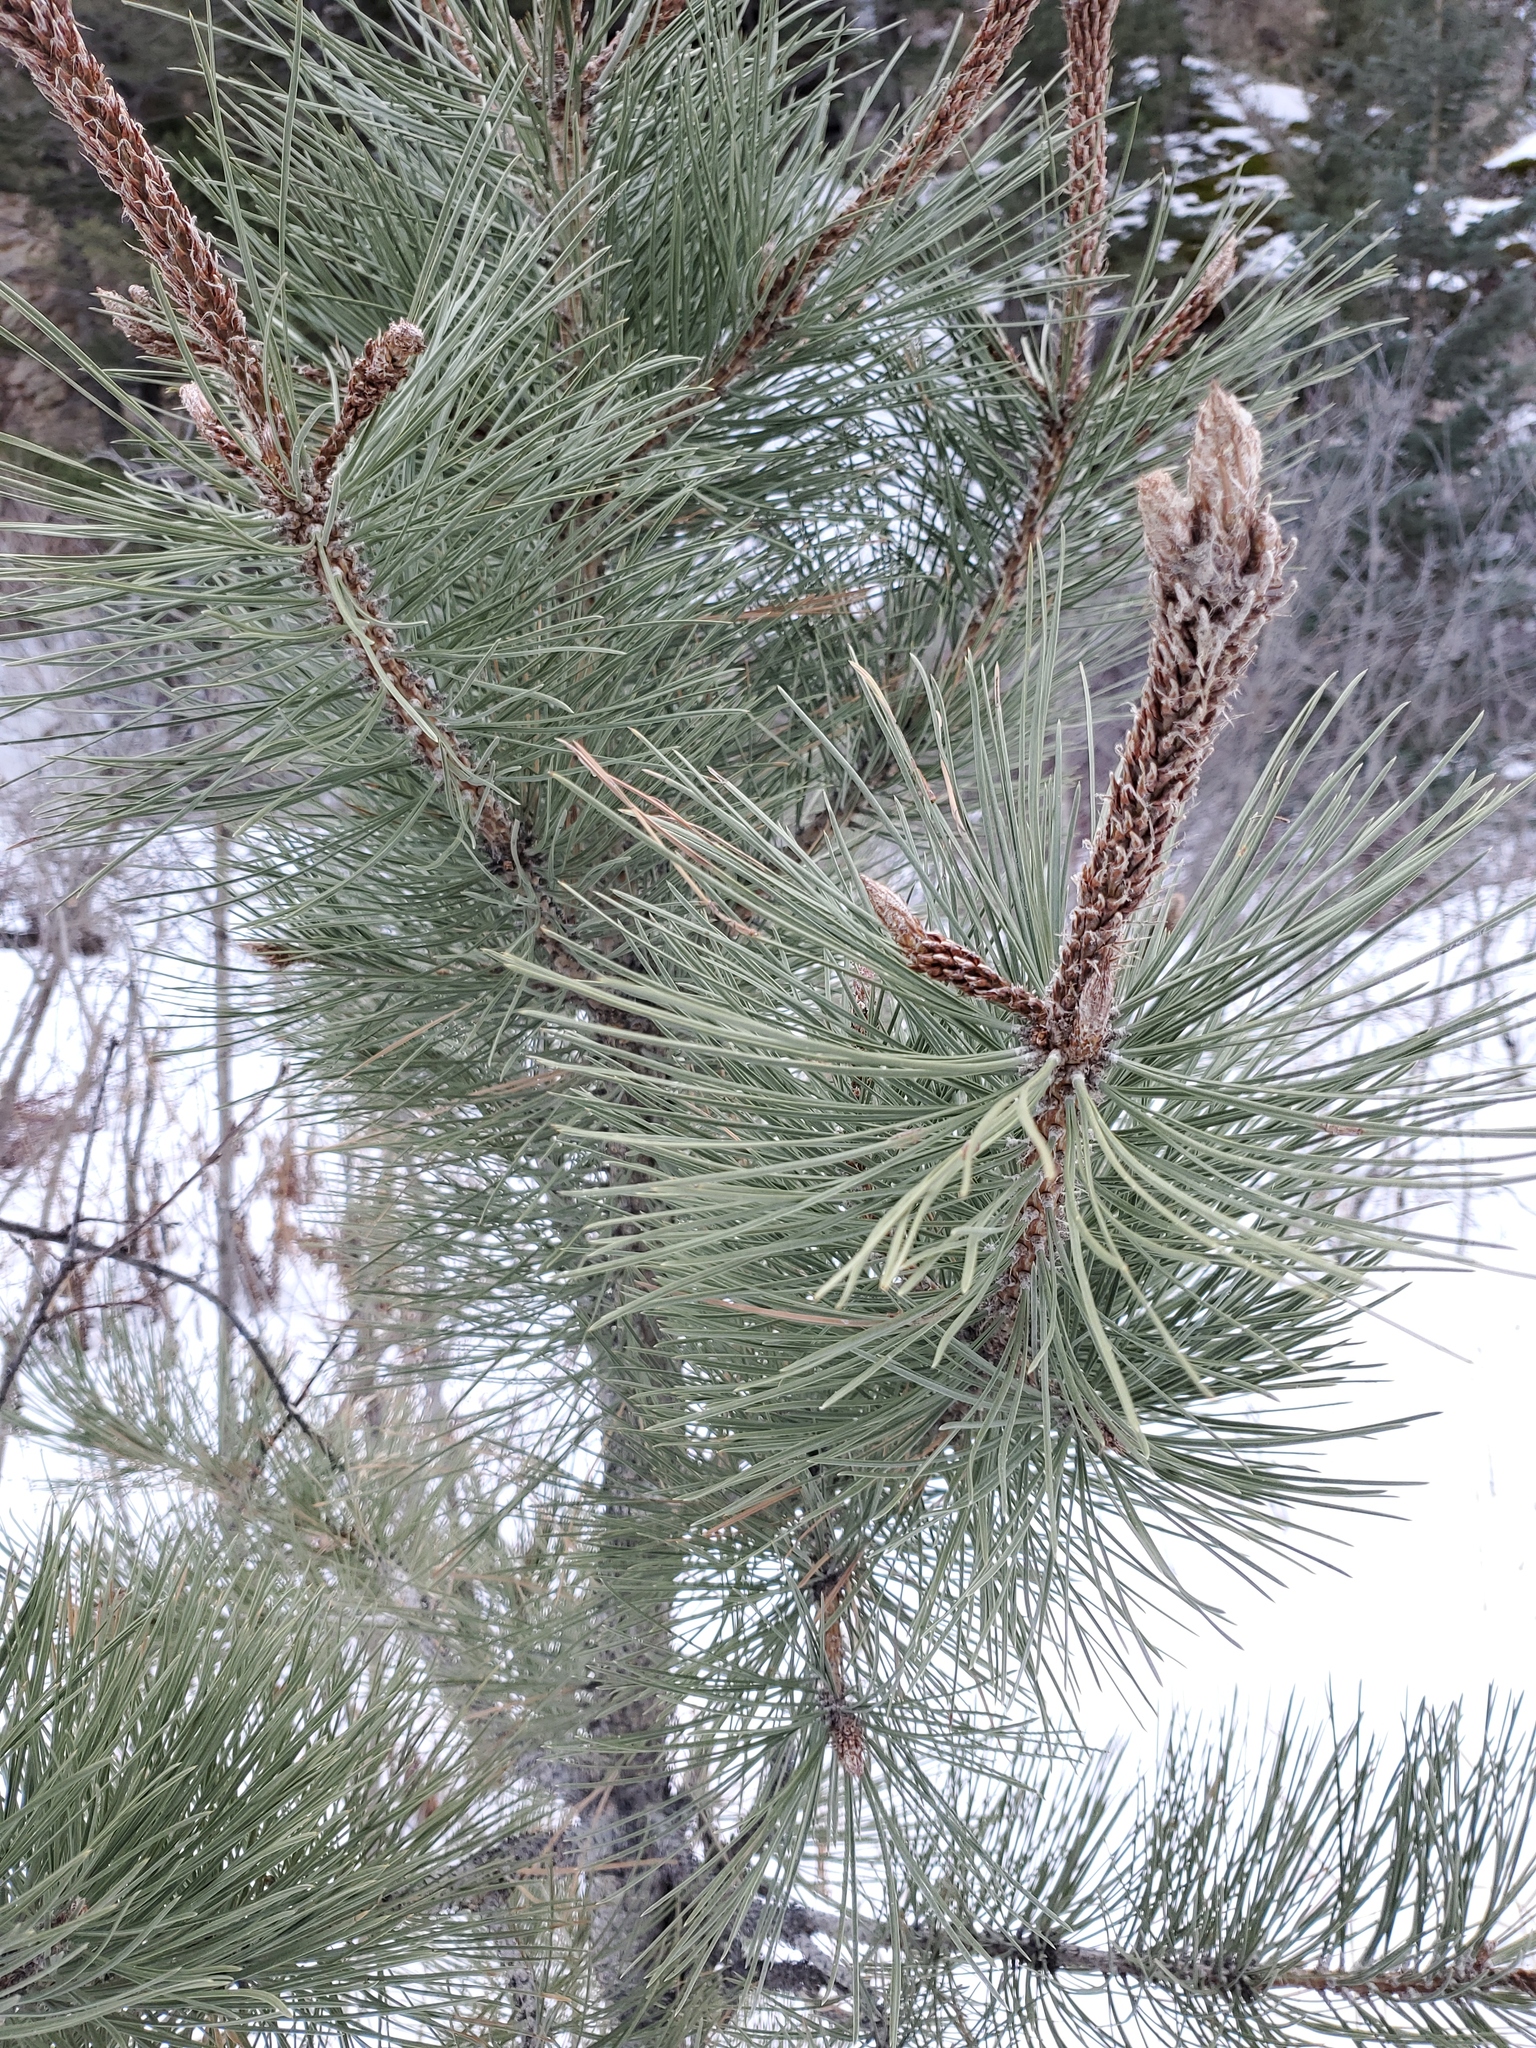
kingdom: Plantae
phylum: Tracheophyta
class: Pinopsida
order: Pinales
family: Pinaceae
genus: Pinus
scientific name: Pinus ponderosa
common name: Western yellow-pine
